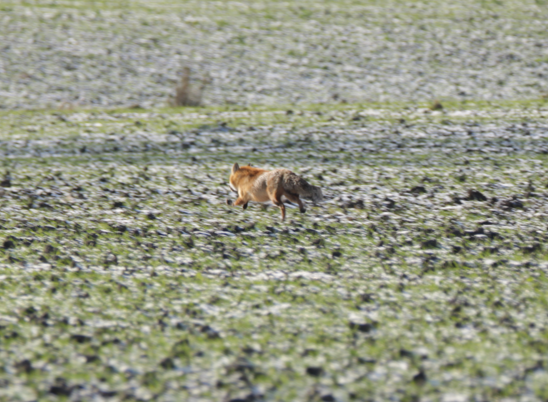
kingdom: Animalia
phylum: Chordata
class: Mammalia
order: Carnivora
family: Canidae
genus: Vulpes
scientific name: Vulpes vulpes
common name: Red fox
